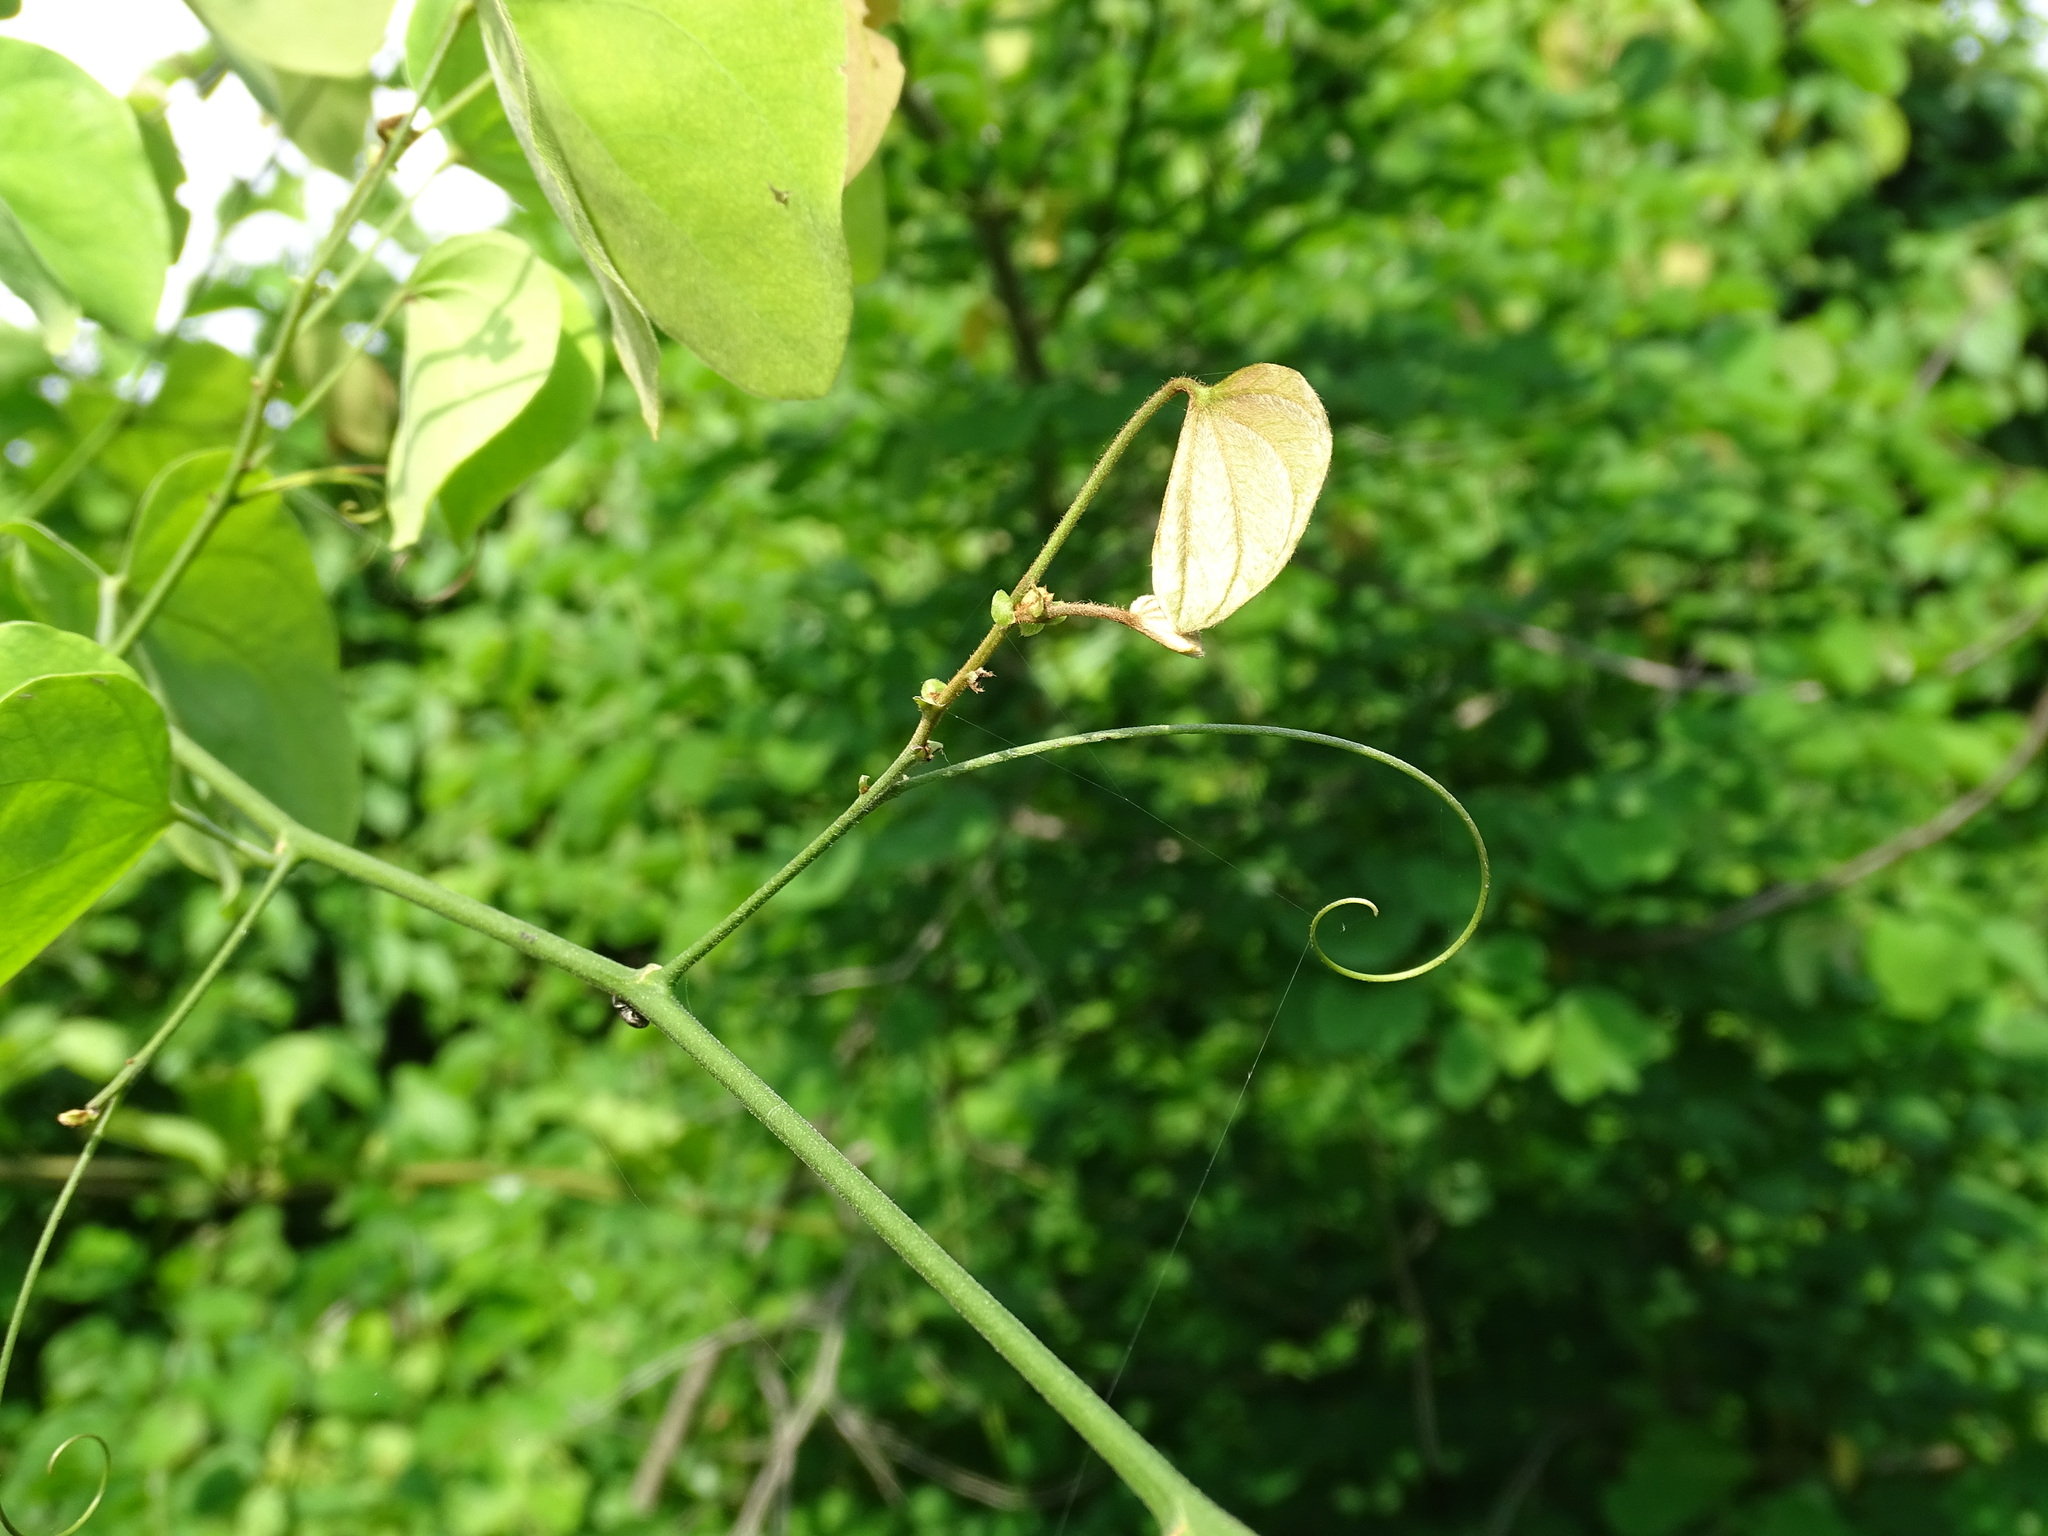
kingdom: Plantae
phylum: Tracheophyta
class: Magnoliopsida
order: Fabales
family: Fabaceae
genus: Schnella
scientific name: Schnella glabra
